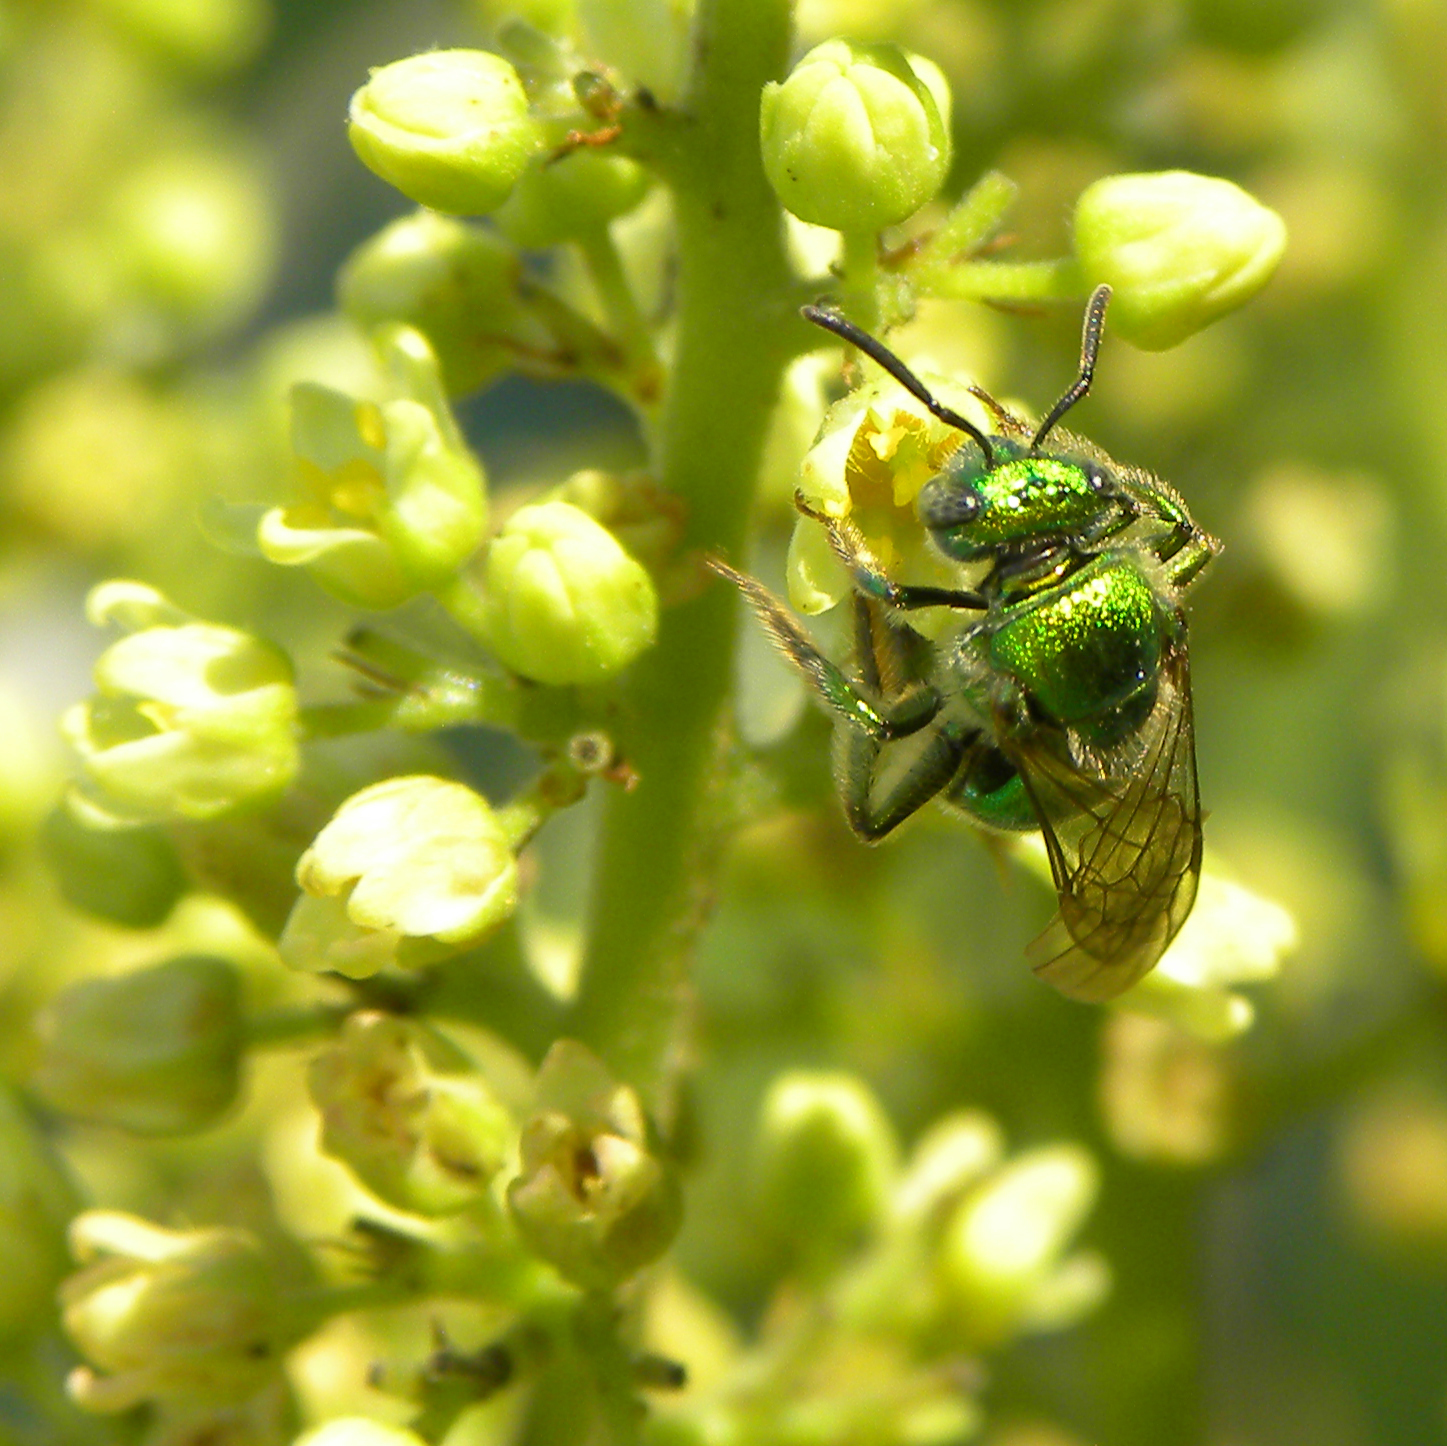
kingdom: Animalia
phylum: Arthropoda
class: Insecta
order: Hymenoptera
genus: Paraugochloropsis
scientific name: Paraugochloropsis
